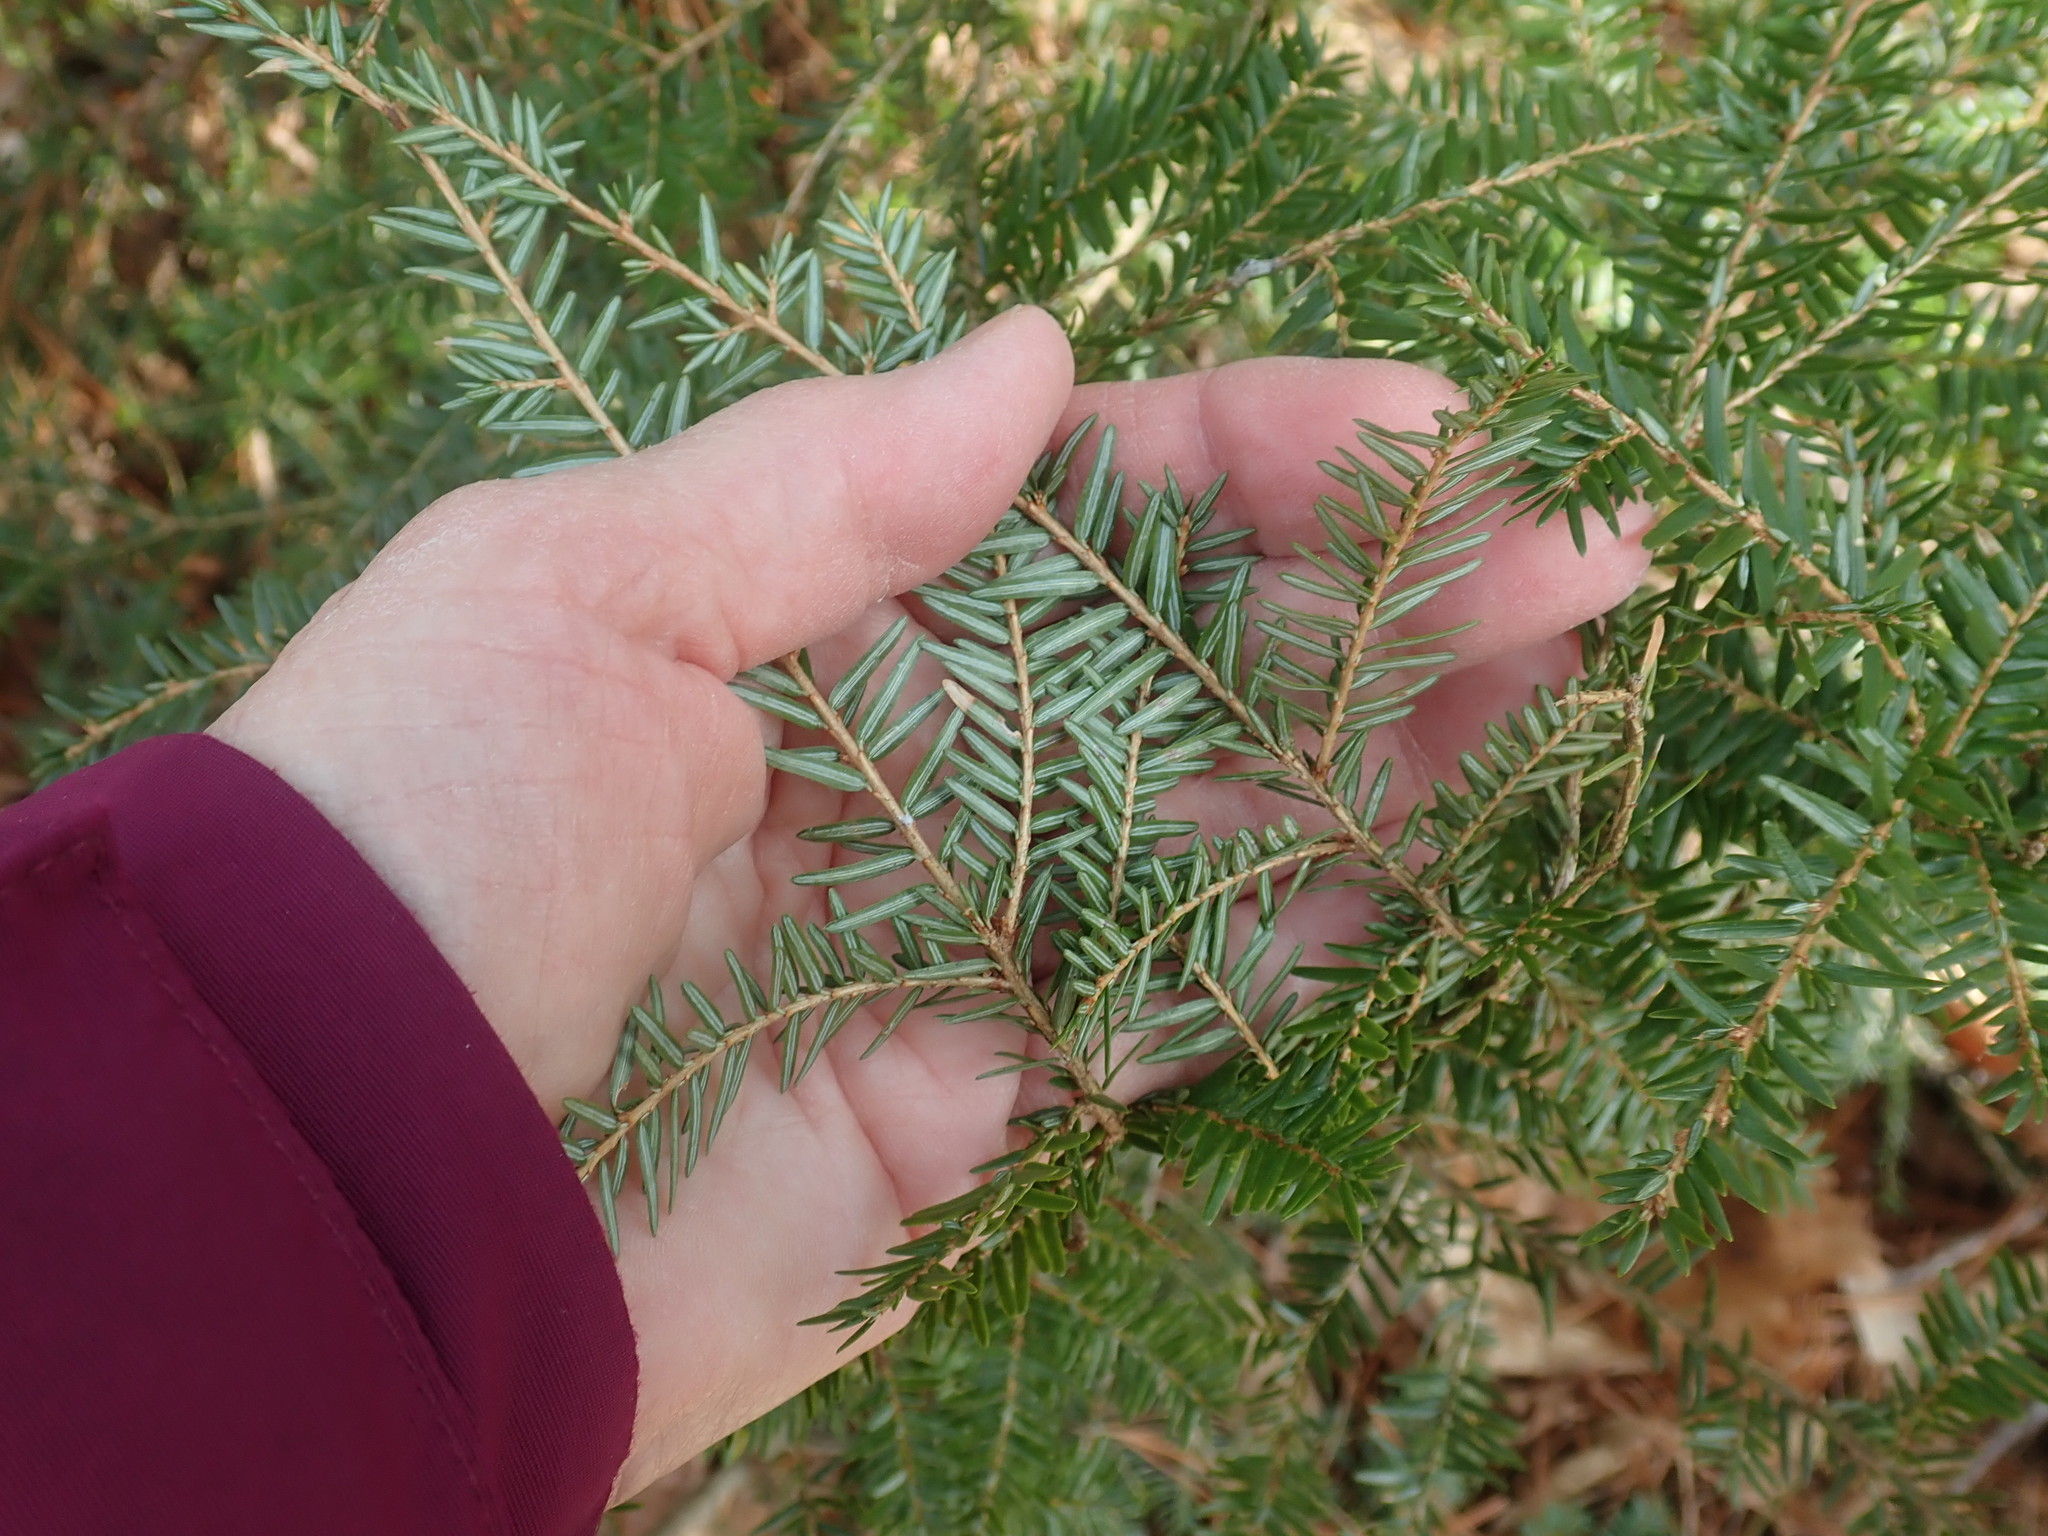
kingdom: Plantae
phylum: Tracheophyta
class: Pinopsida
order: Pinales
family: Pinaceae
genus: Tsuga
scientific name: Tsuga canadensis
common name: Eastern hemlock
